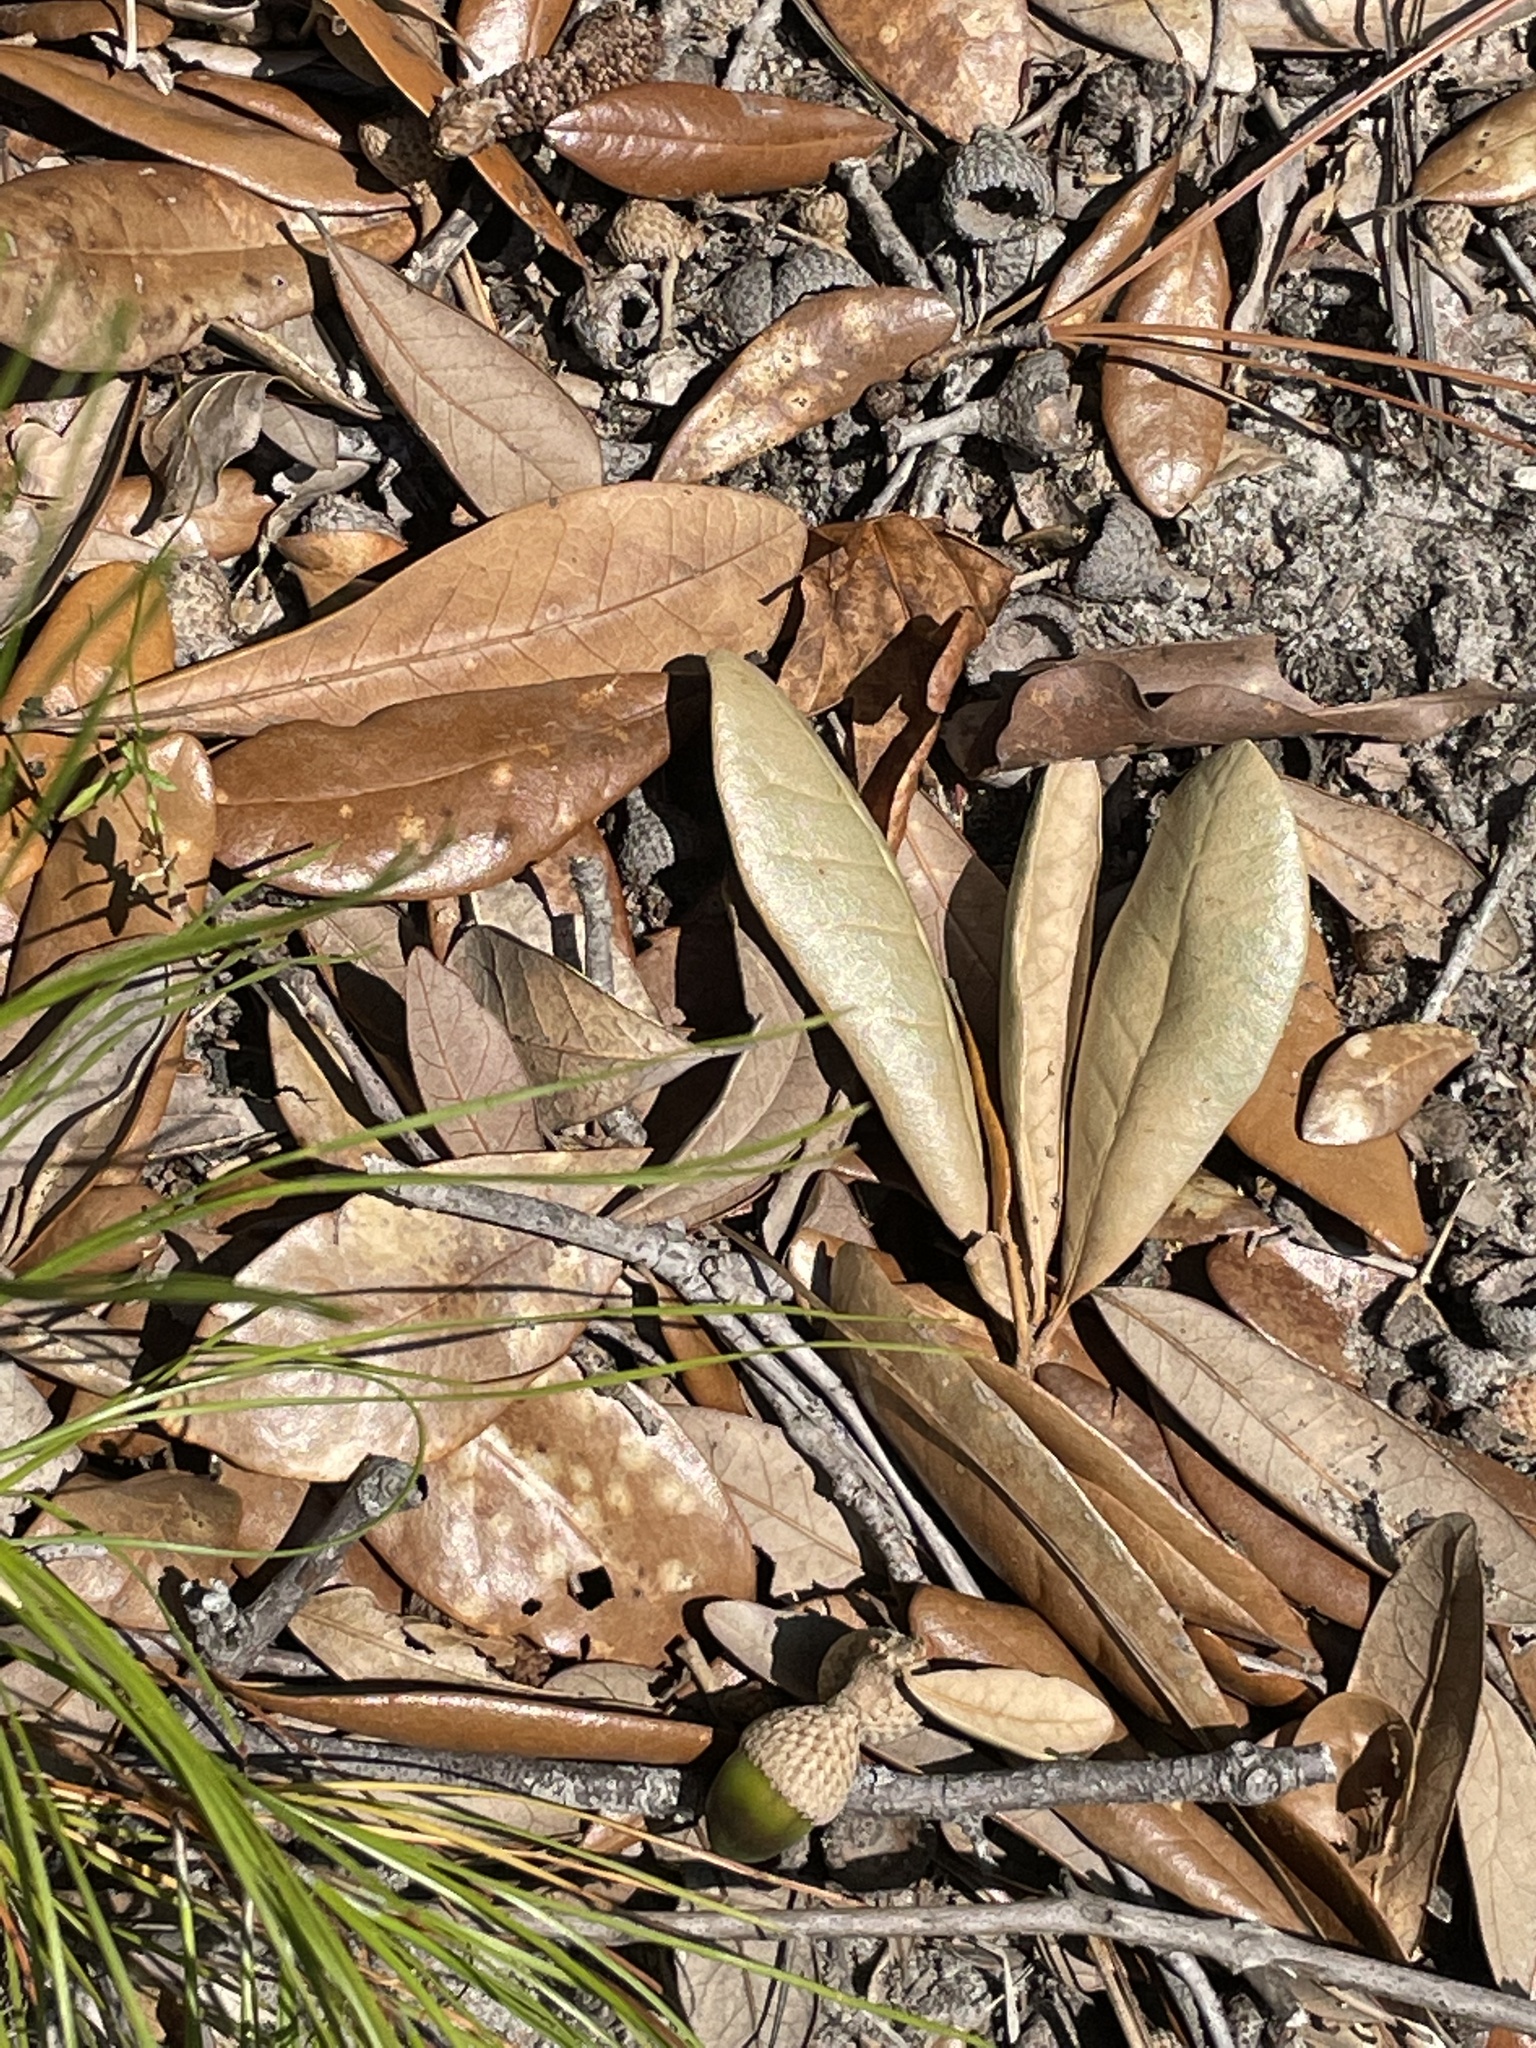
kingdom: Plantae
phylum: Tracheophyta
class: Magnoliopsida
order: Fagales
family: Fagaceae
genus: Quercus
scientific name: Quercus virginiana
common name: Southern live oak
